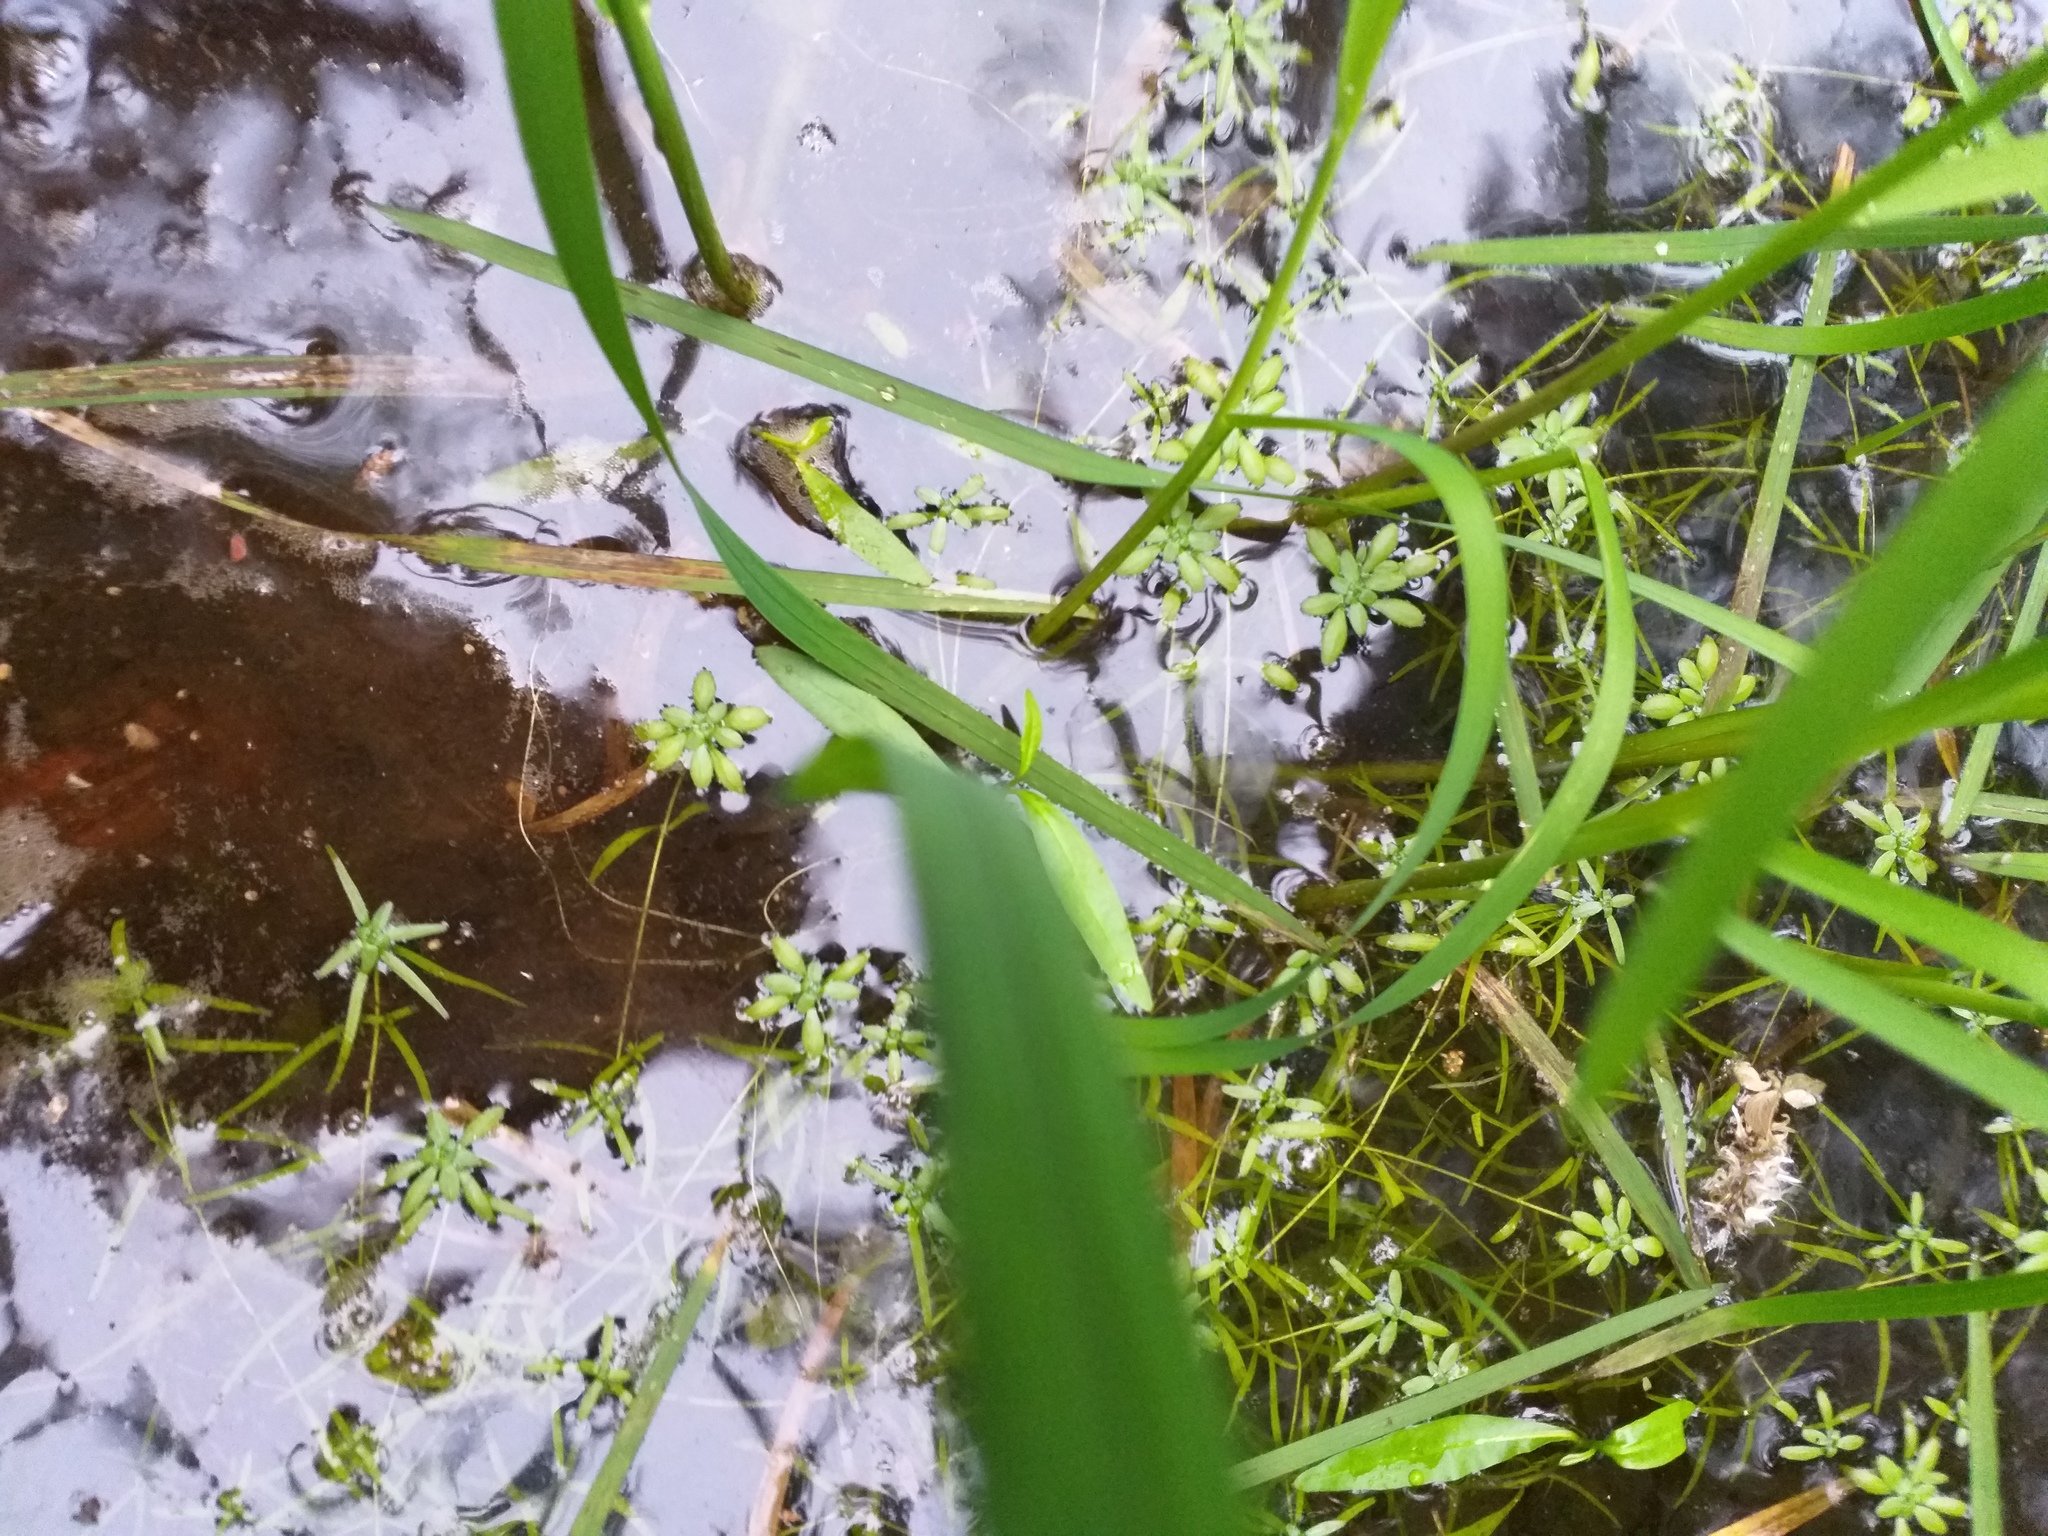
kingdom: Plantae
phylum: Tracheophyta
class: Magnoliopsida
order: Lamiales
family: Plantaginaceae
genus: Callitriche
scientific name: Callitriche cophocarpa
